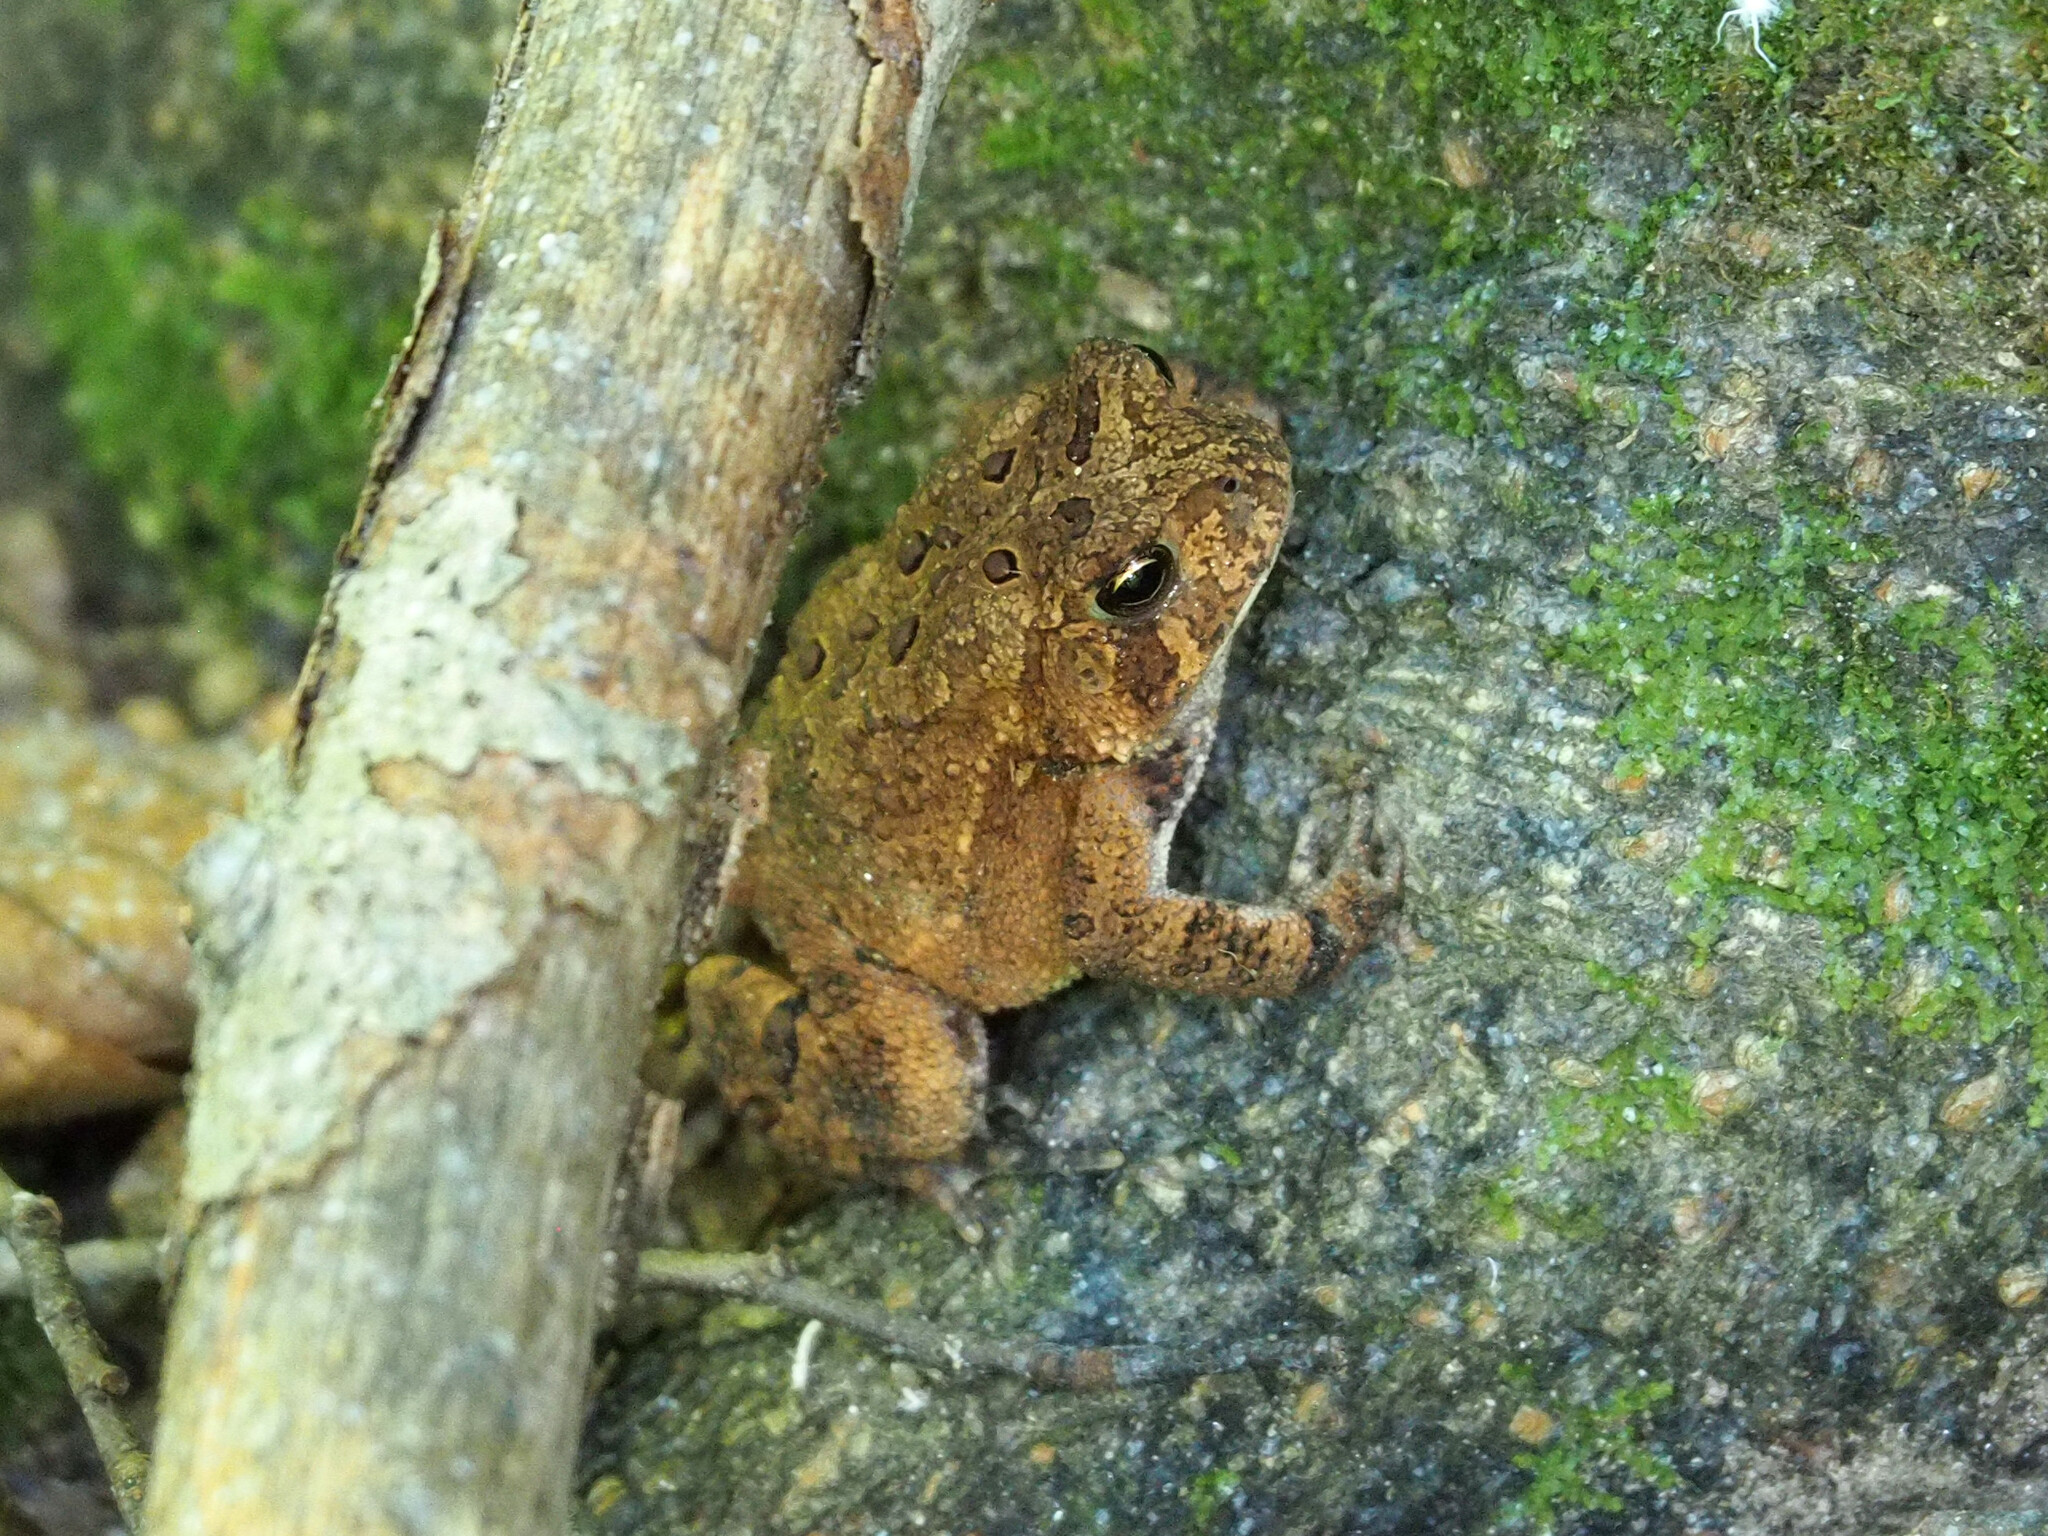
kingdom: Animalia
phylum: Chordata
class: Amphibia
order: Anura
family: Bufonidae
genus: Anaxyrus
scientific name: Anaxyrus americanus
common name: American toad
